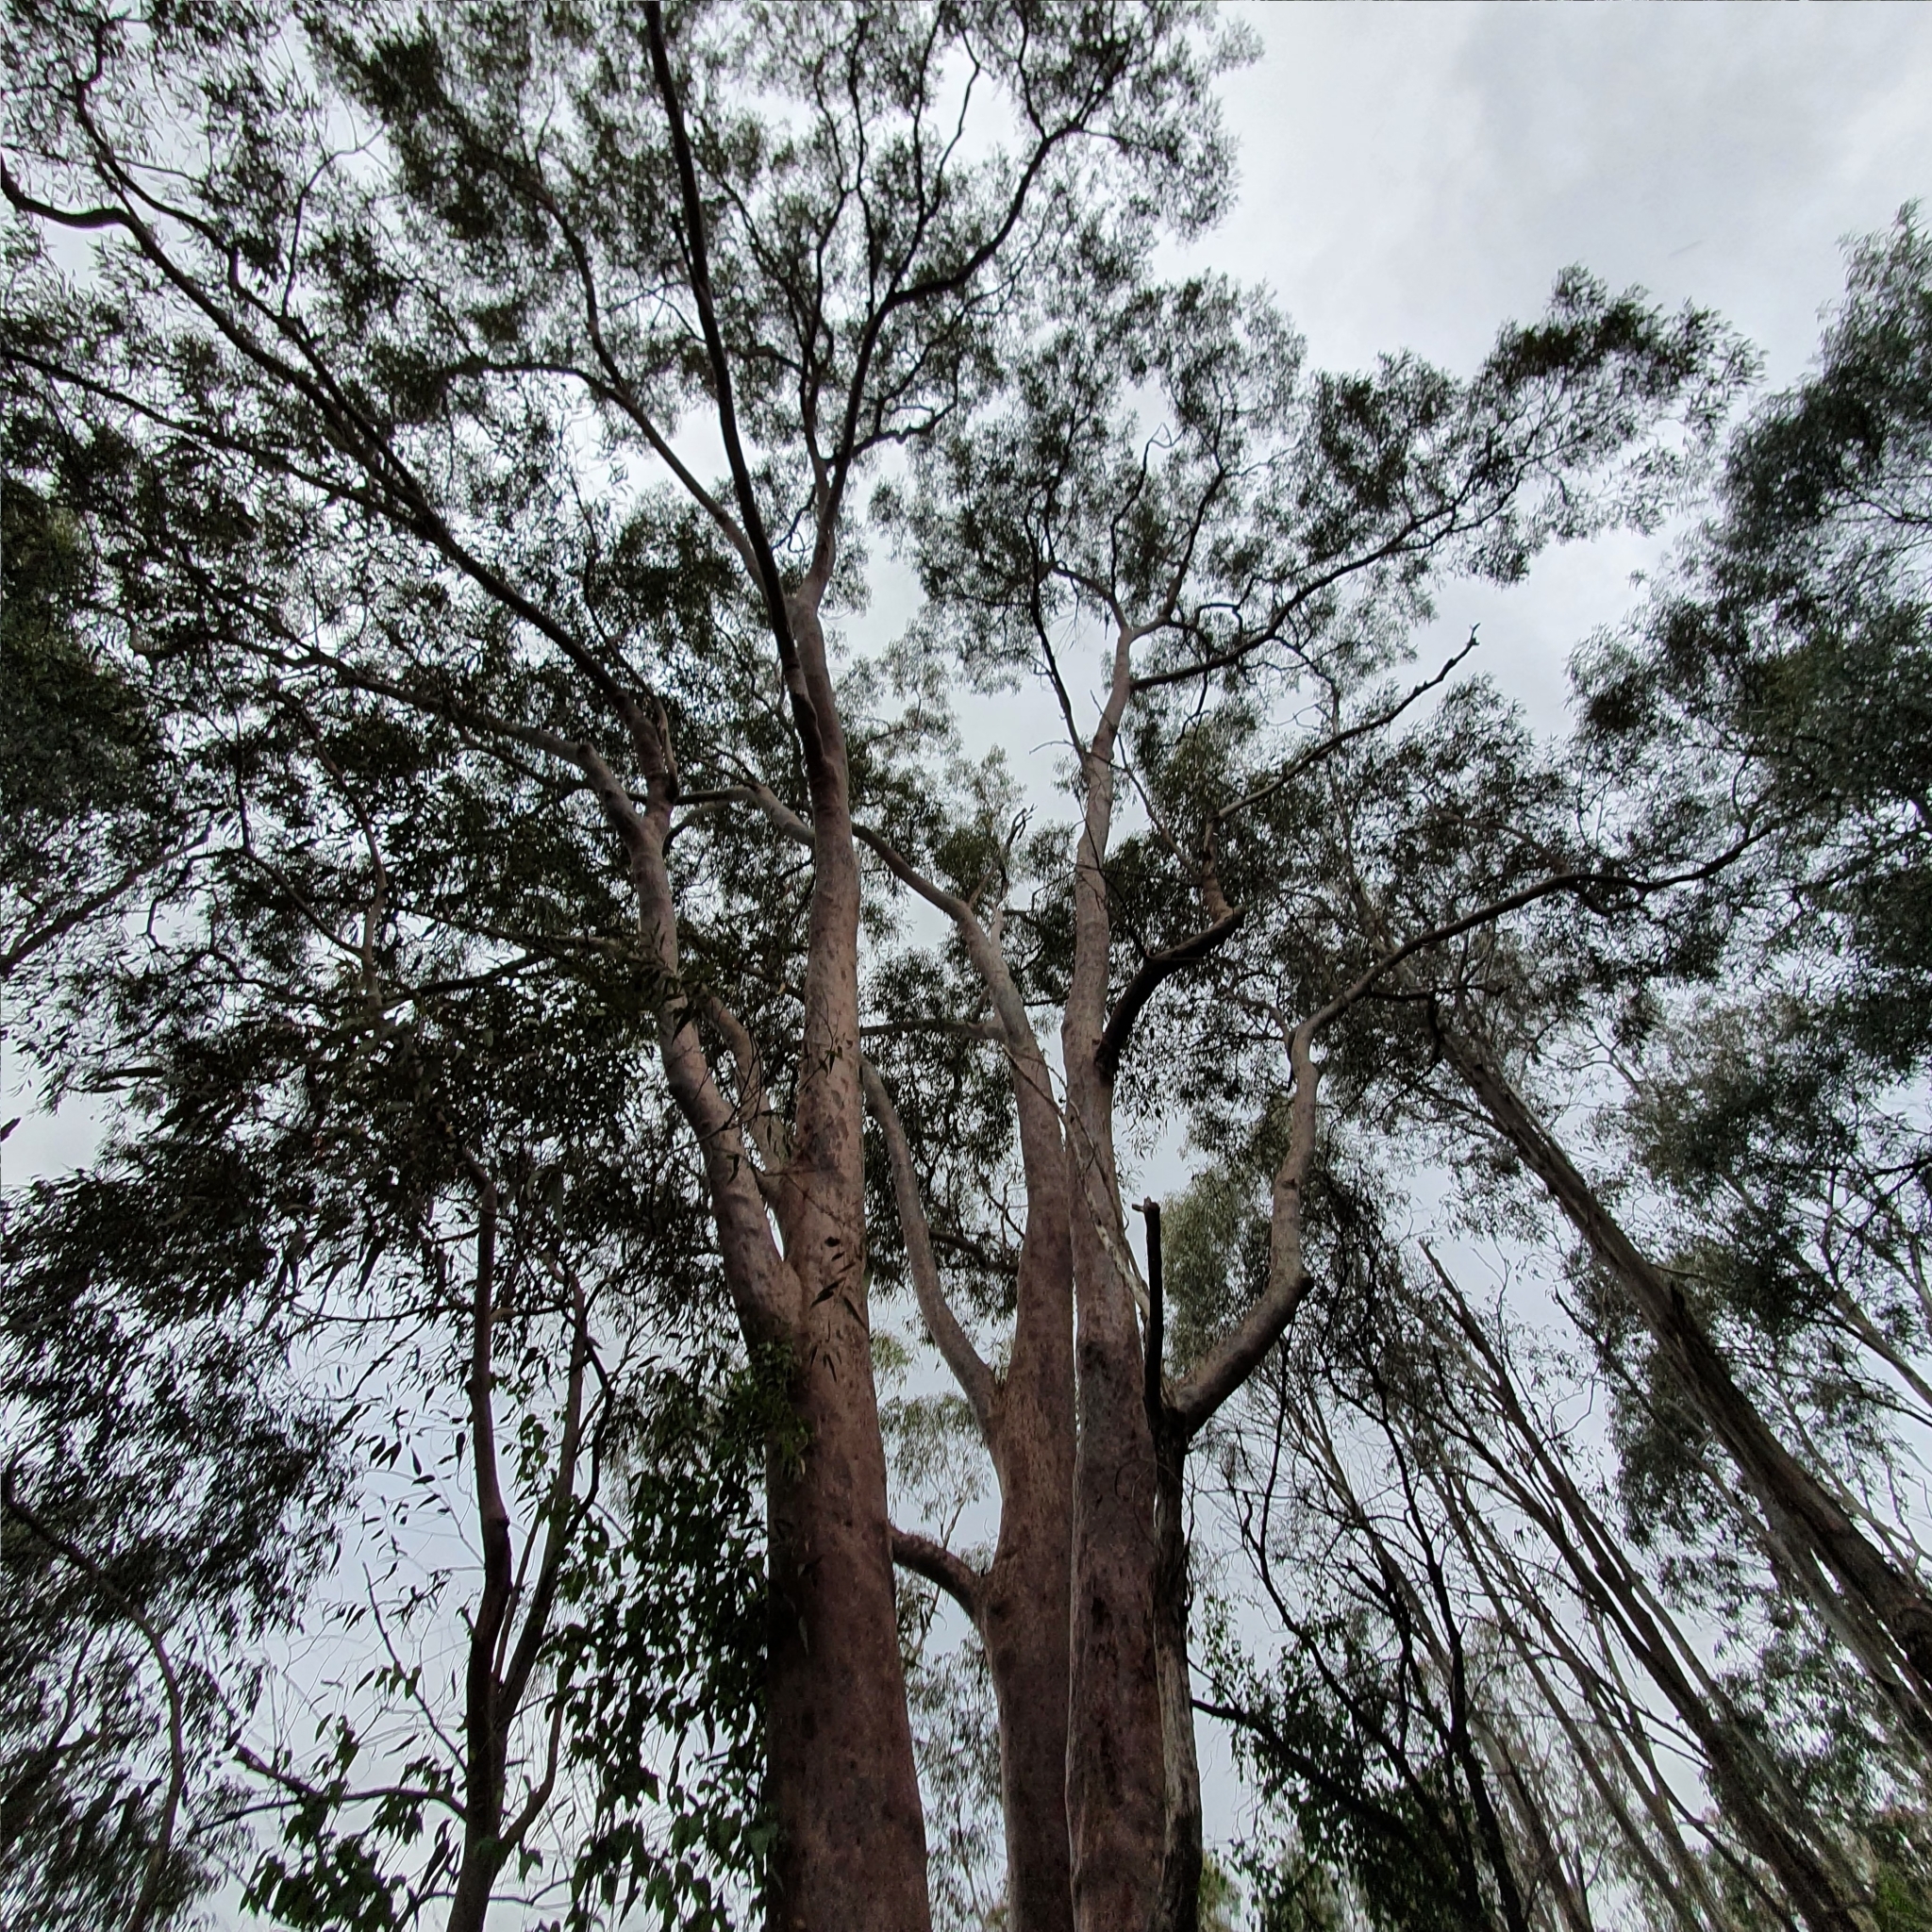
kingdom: Plantae
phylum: Tracheophyta
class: Magnoliopsida
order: Myrtales
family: Myrtaceae
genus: Angophora
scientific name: Angophora costata
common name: Gum myrtle
